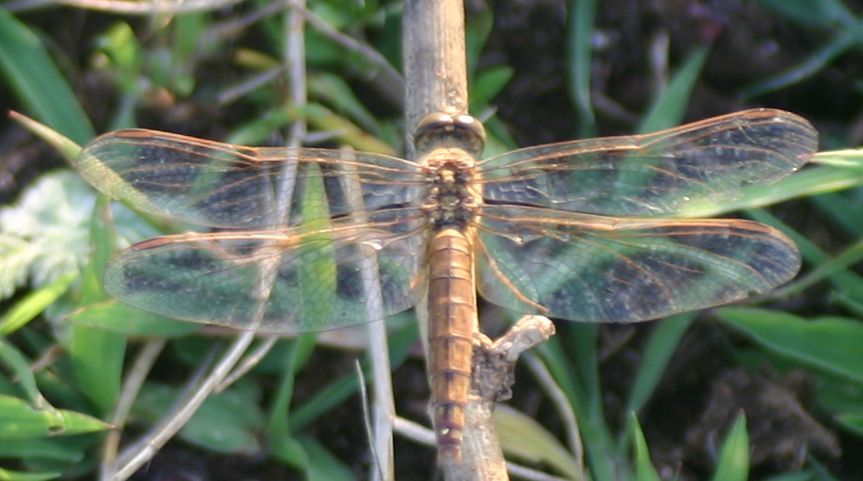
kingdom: Animalia
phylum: Arthropoda
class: Insecta
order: Odonata
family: Libellulidae
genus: Brachythemis
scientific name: Brachythemis contaminata
